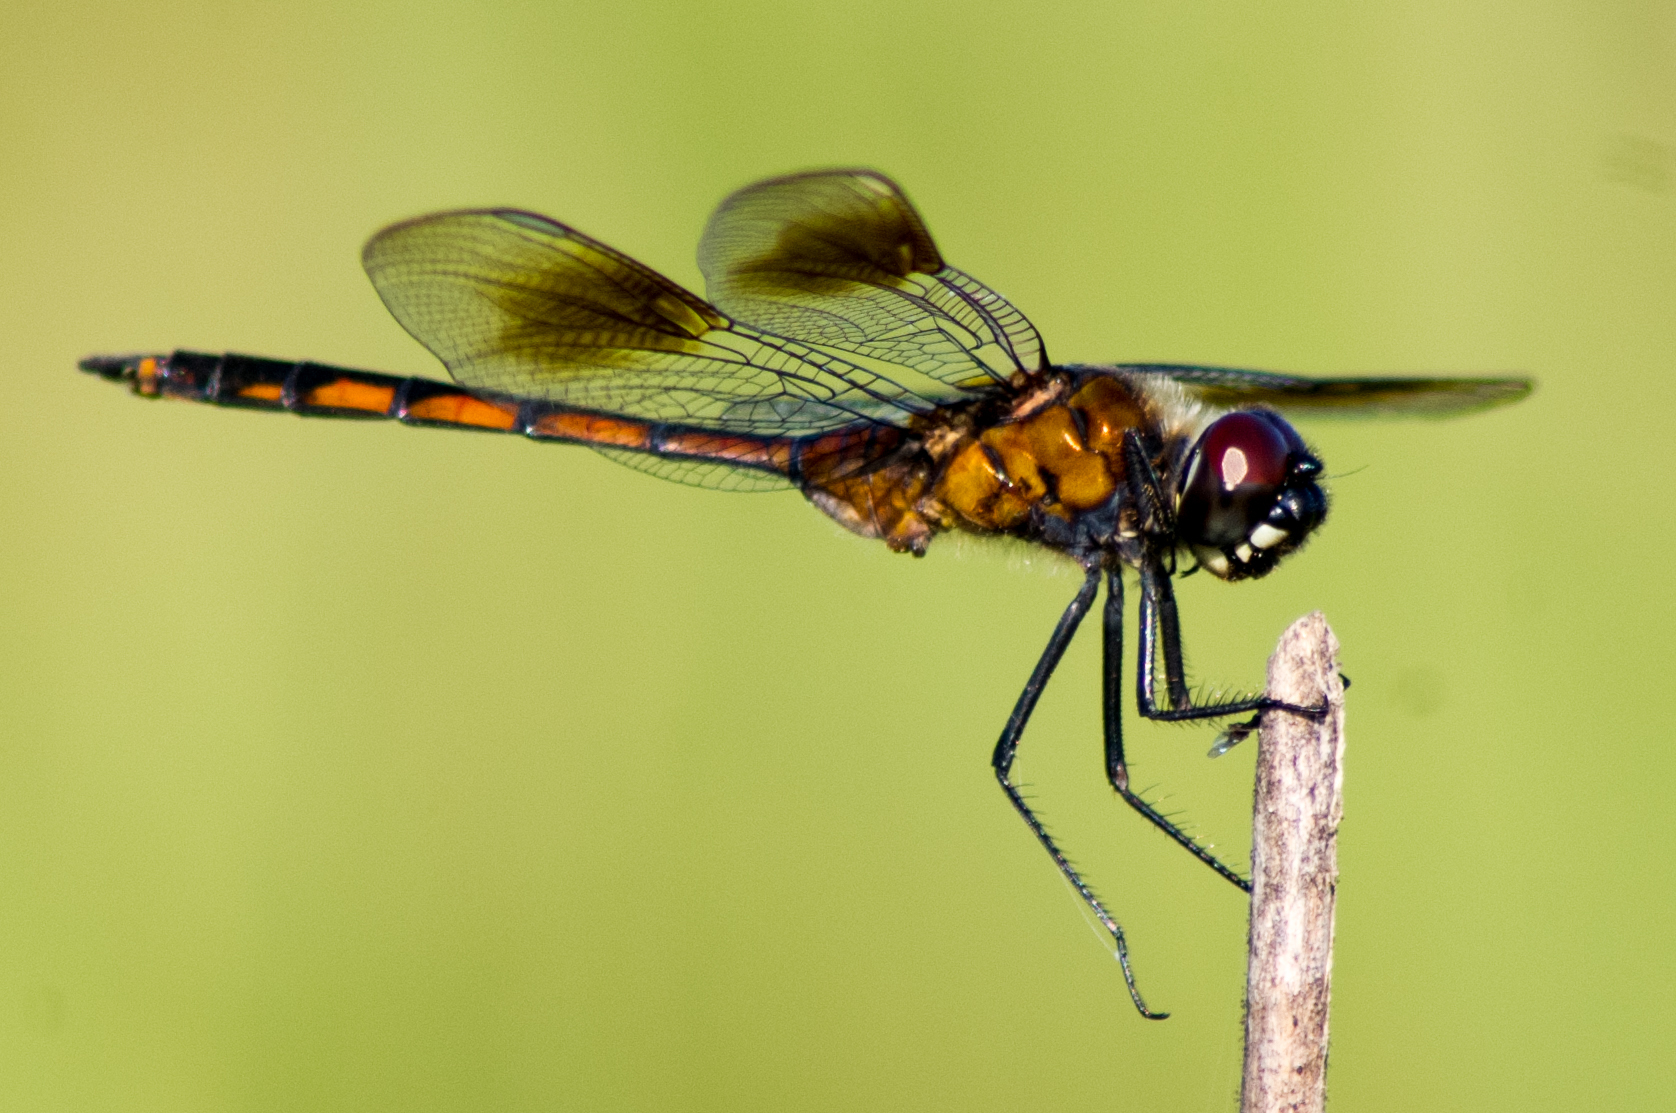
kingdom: Animalia
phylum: Arthropoda
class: Insecta
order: Odonata
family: Libellulidae
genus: Brachymesia
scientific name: Brachymesia gravida
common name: Four-spotted pennant
